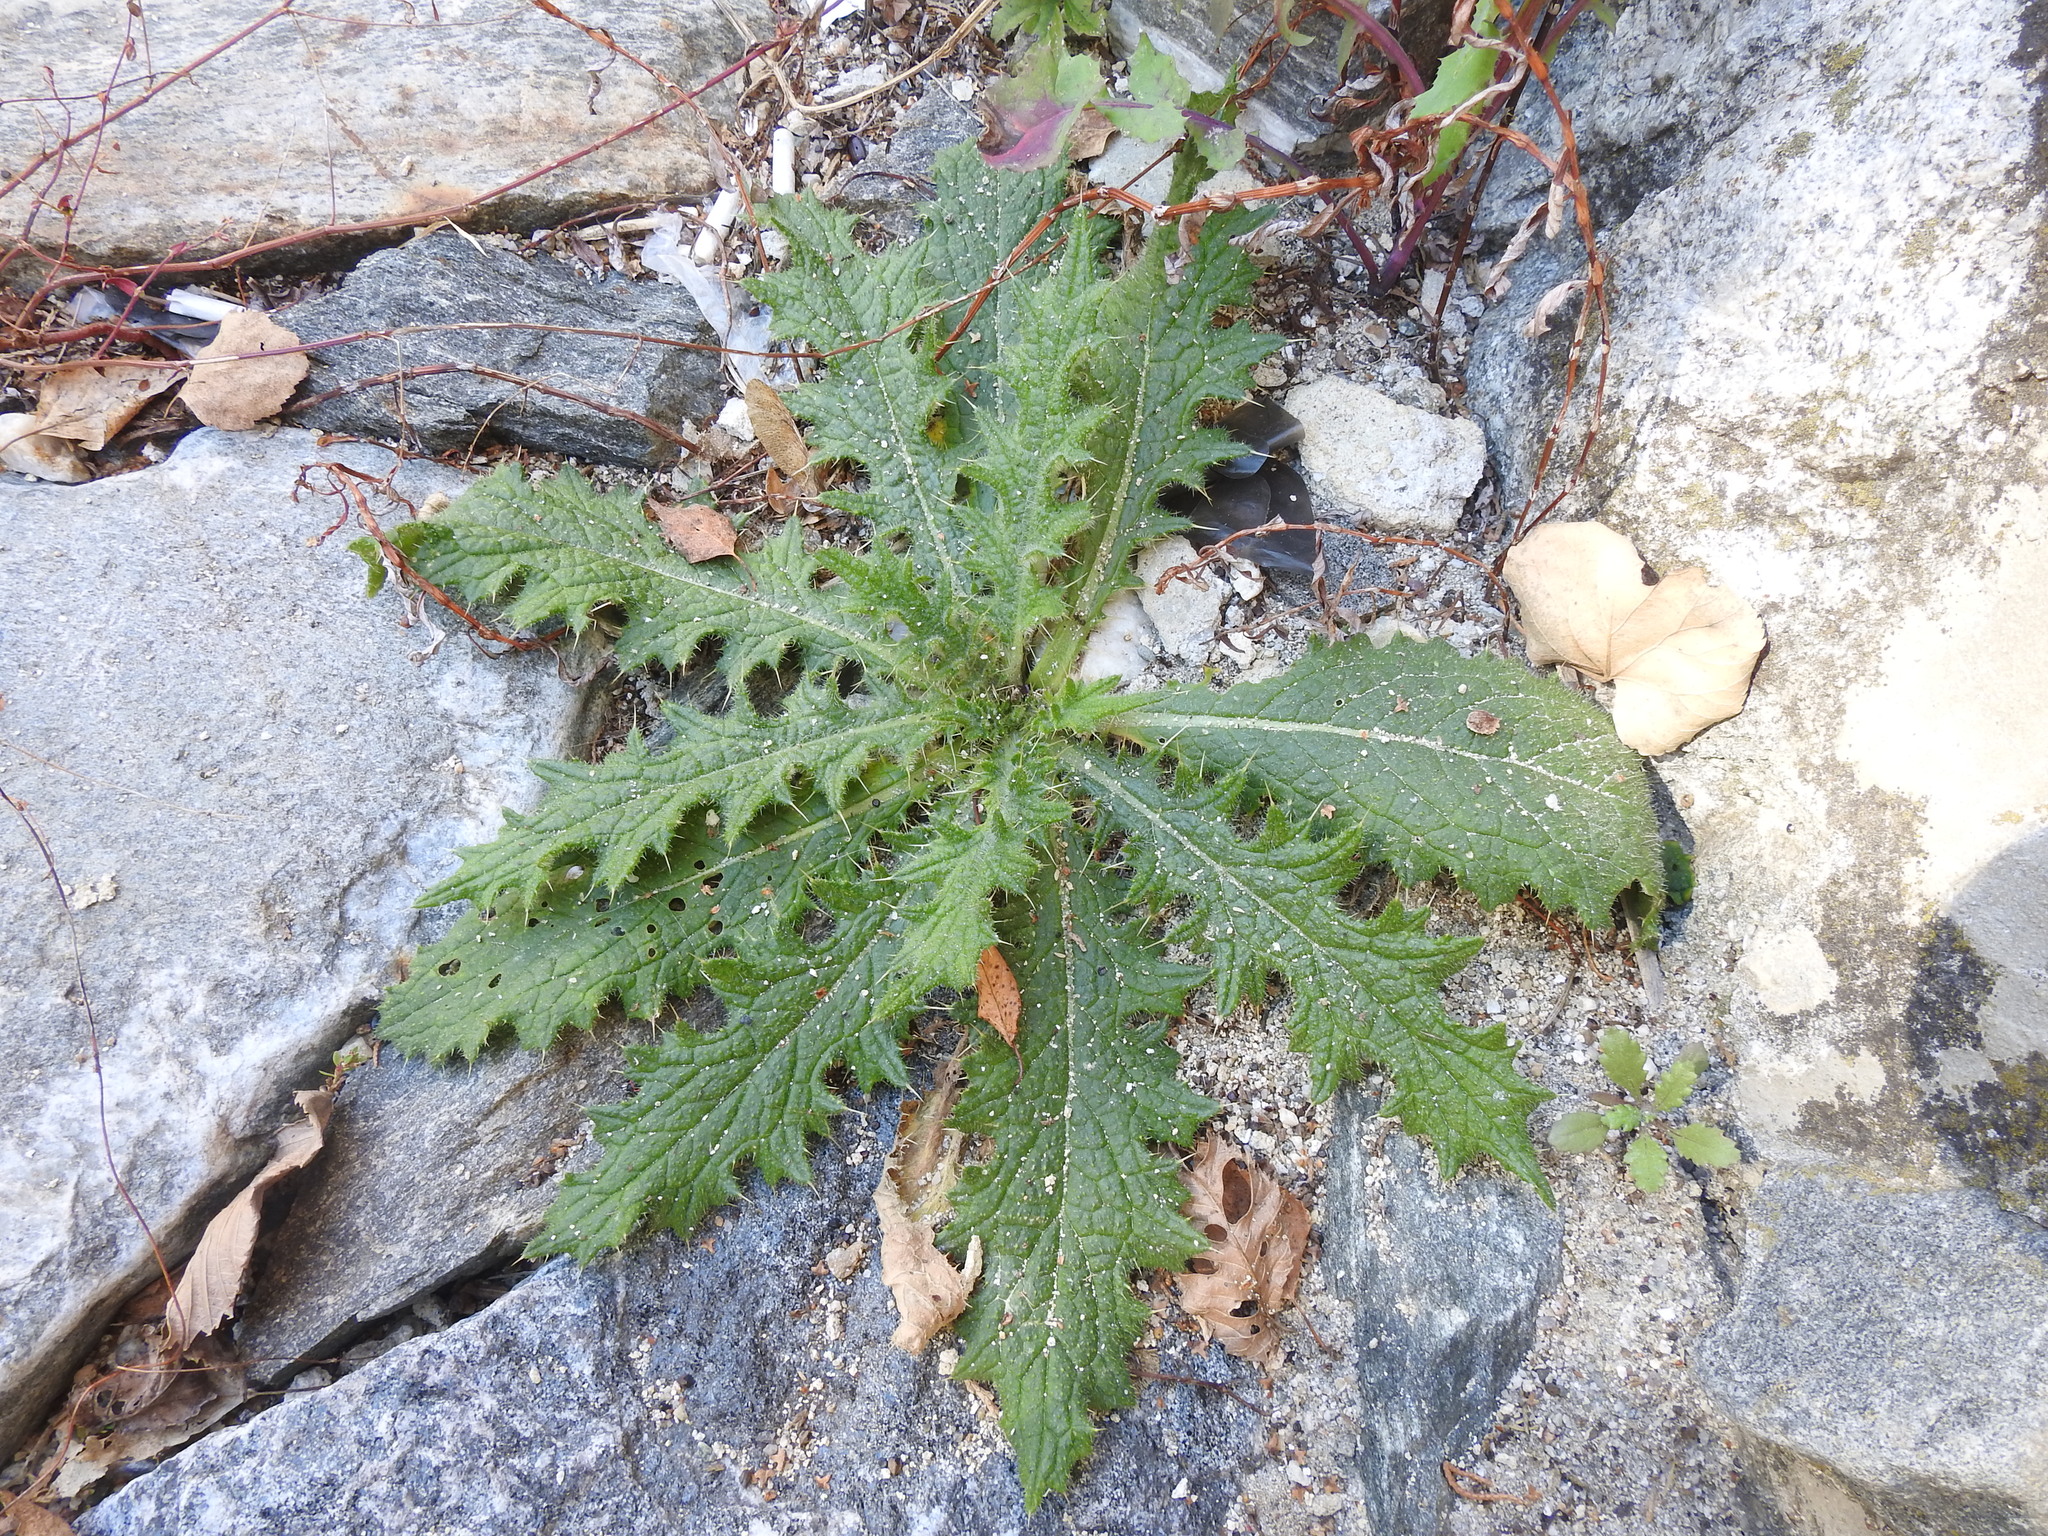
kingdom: Plantae
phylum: Tracheophyta
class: Magnoliopsida
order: Asterales
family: Asteraceae
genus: Cirsium
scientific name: Cirsium vulgare
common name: Bull thistle
